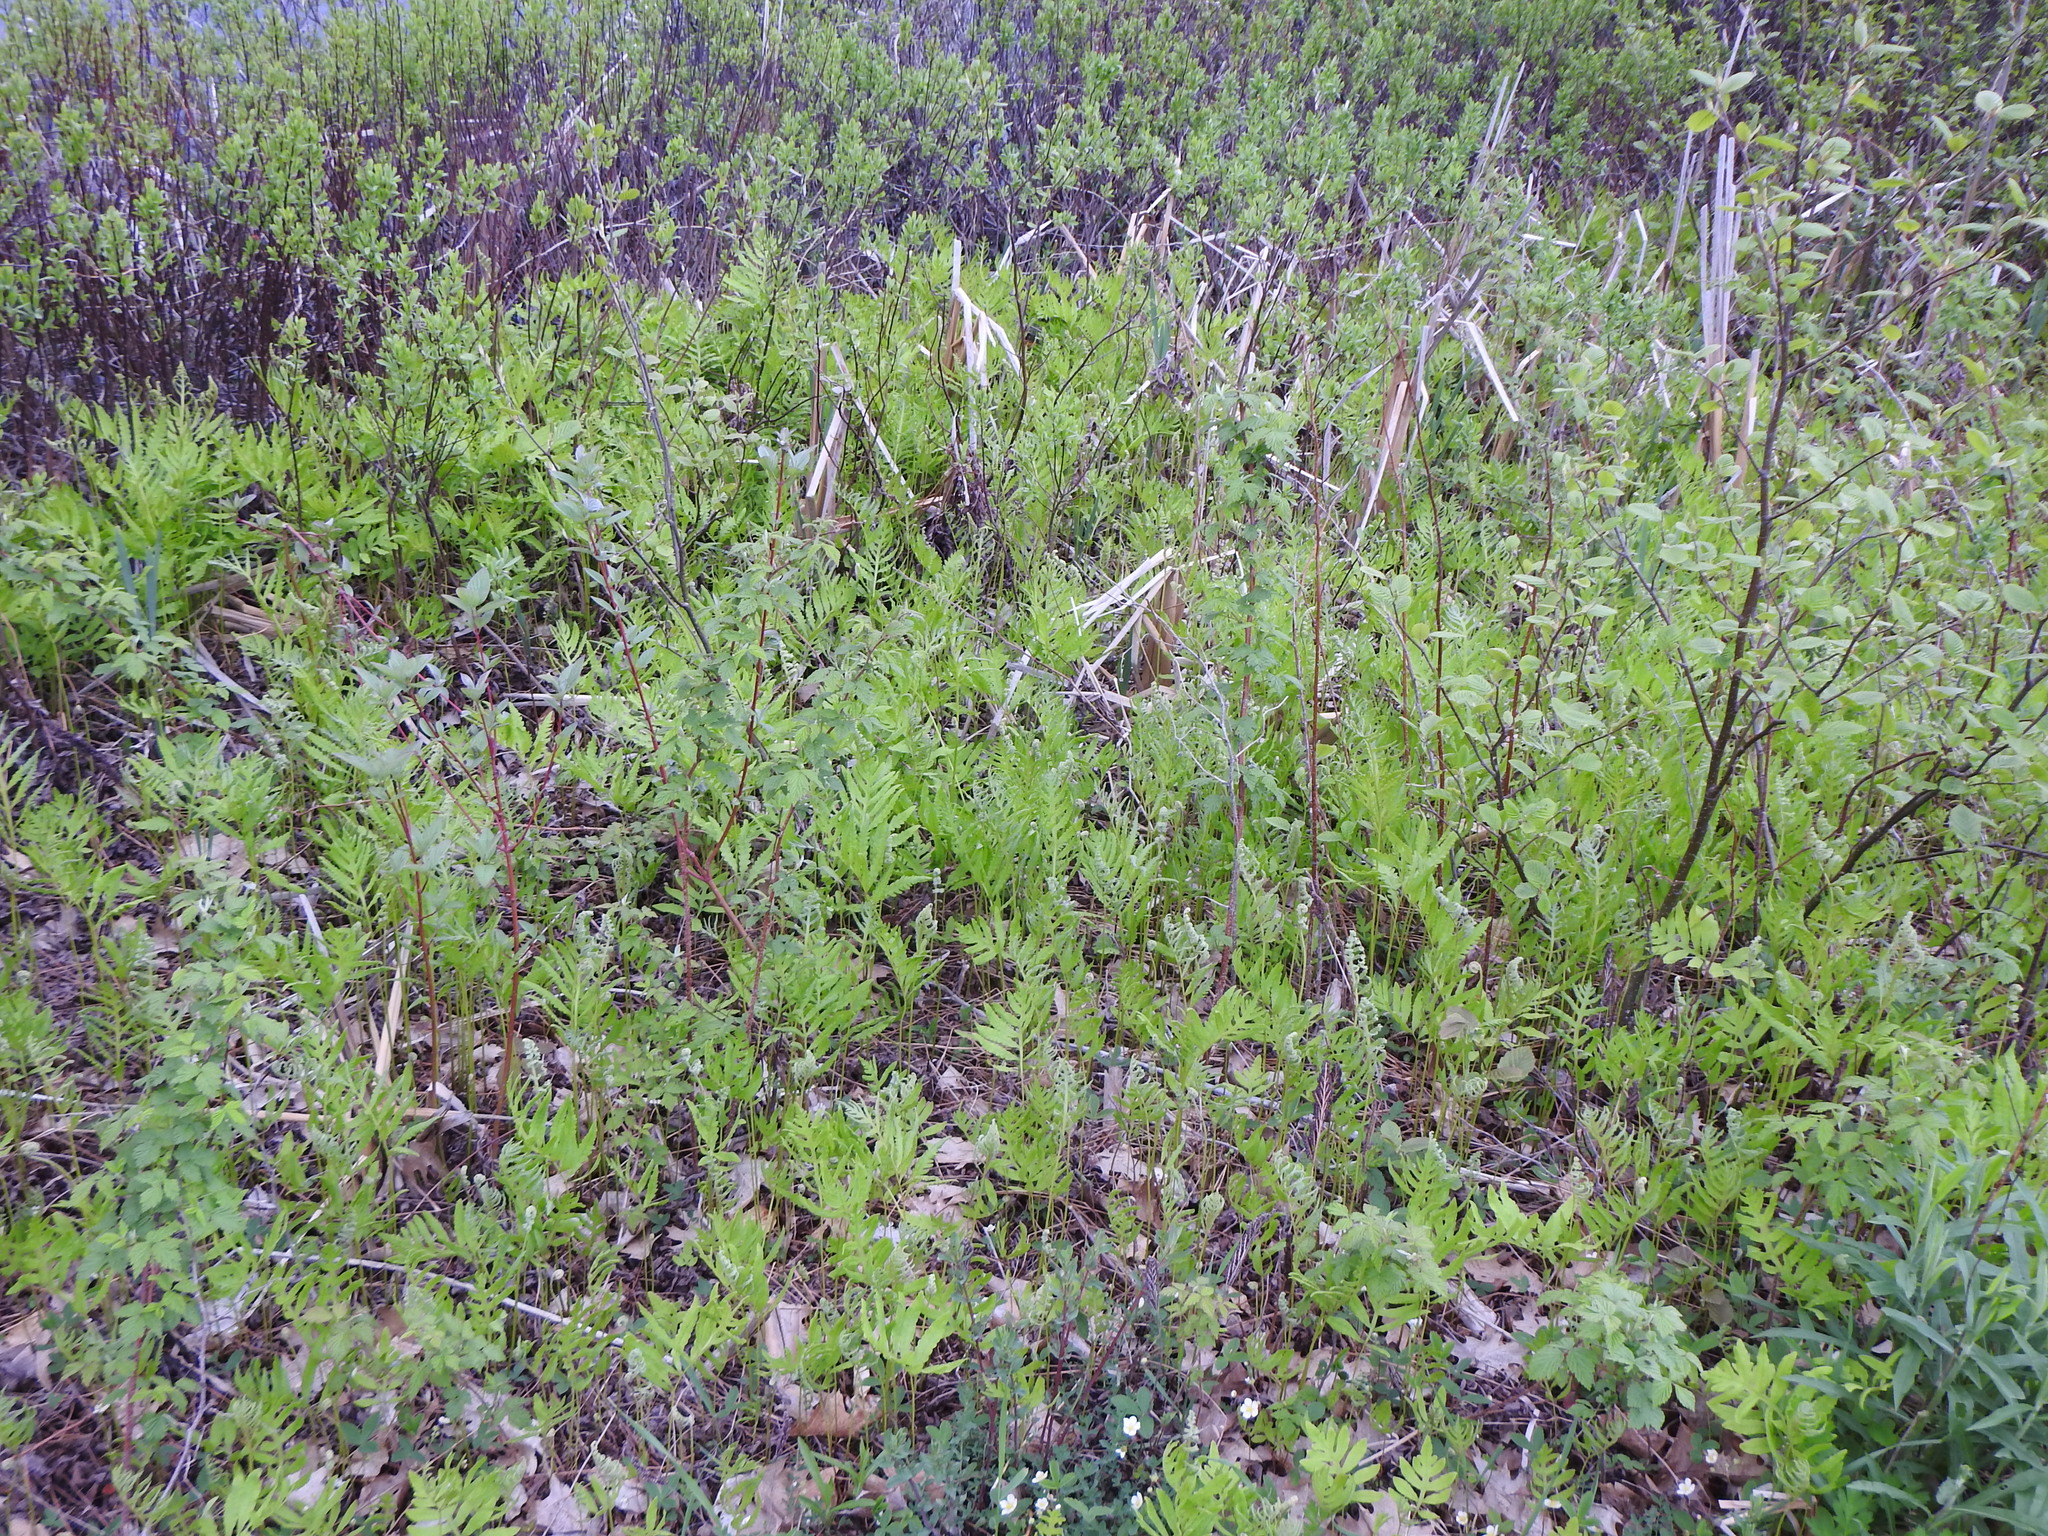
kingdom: Plantae
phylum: Tracheophyta
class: Polypodiopsida
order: Polypodiales
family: Onocleaceae
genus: Onoclea
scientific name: Onoclea sensibilis
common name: Sensitive fern
